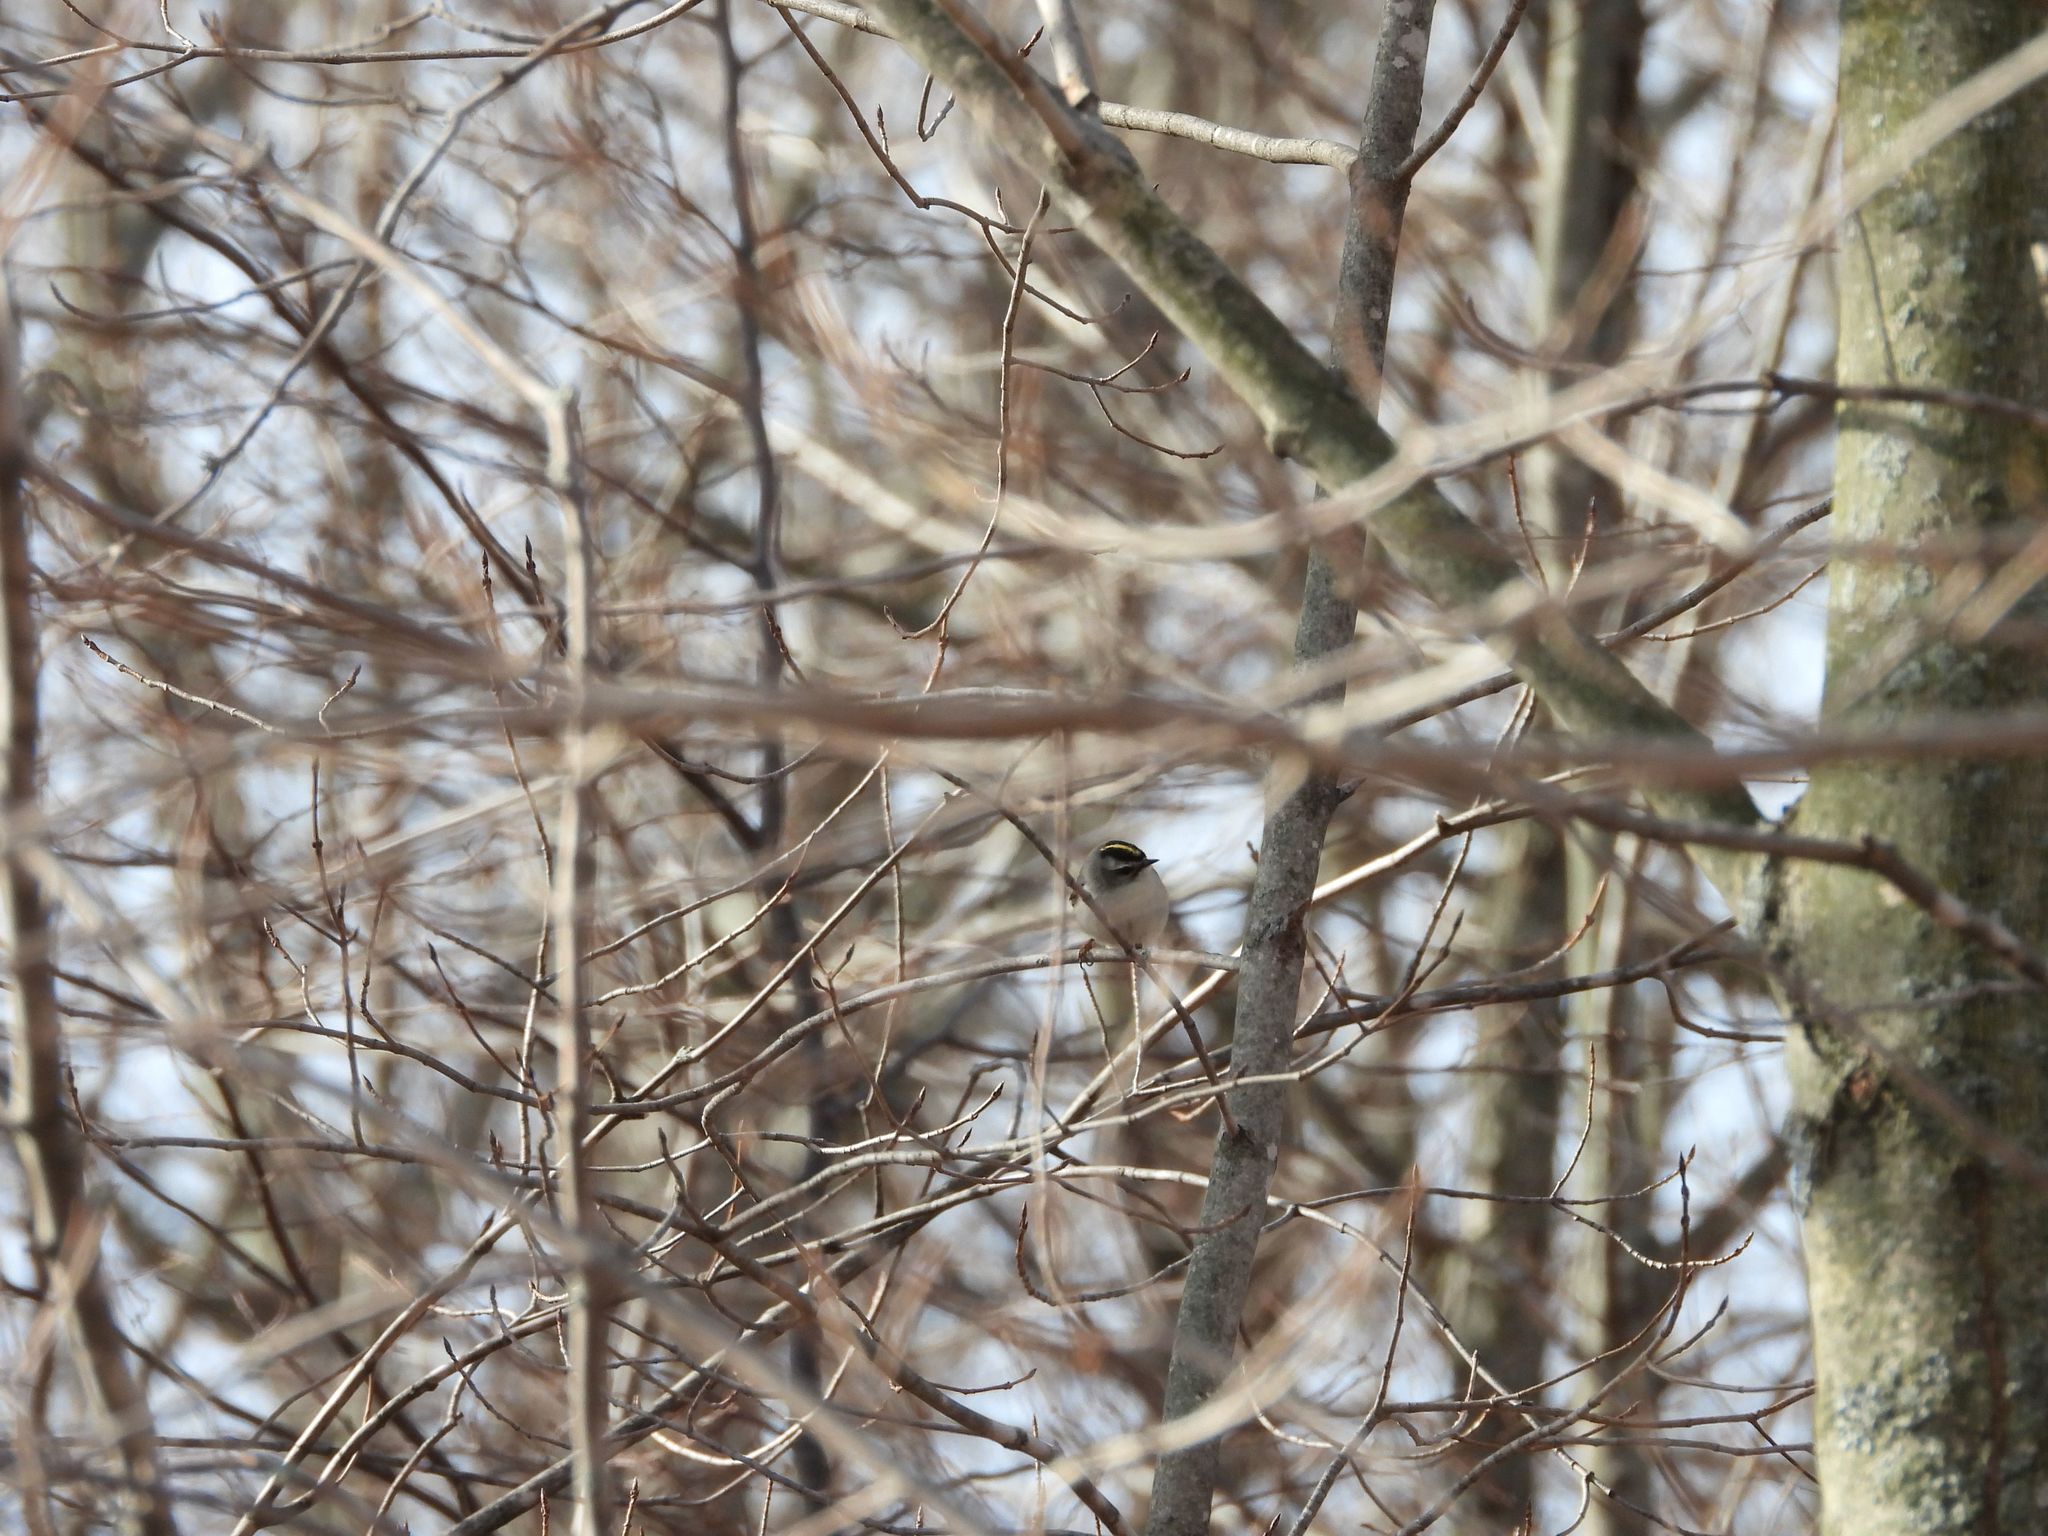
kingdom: Animalia
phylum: Chordata
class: Aves
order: Passeriformes
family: Regulidae
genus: Regulus
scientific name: Regulus satrapa
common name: Golden-crowned kinglet
